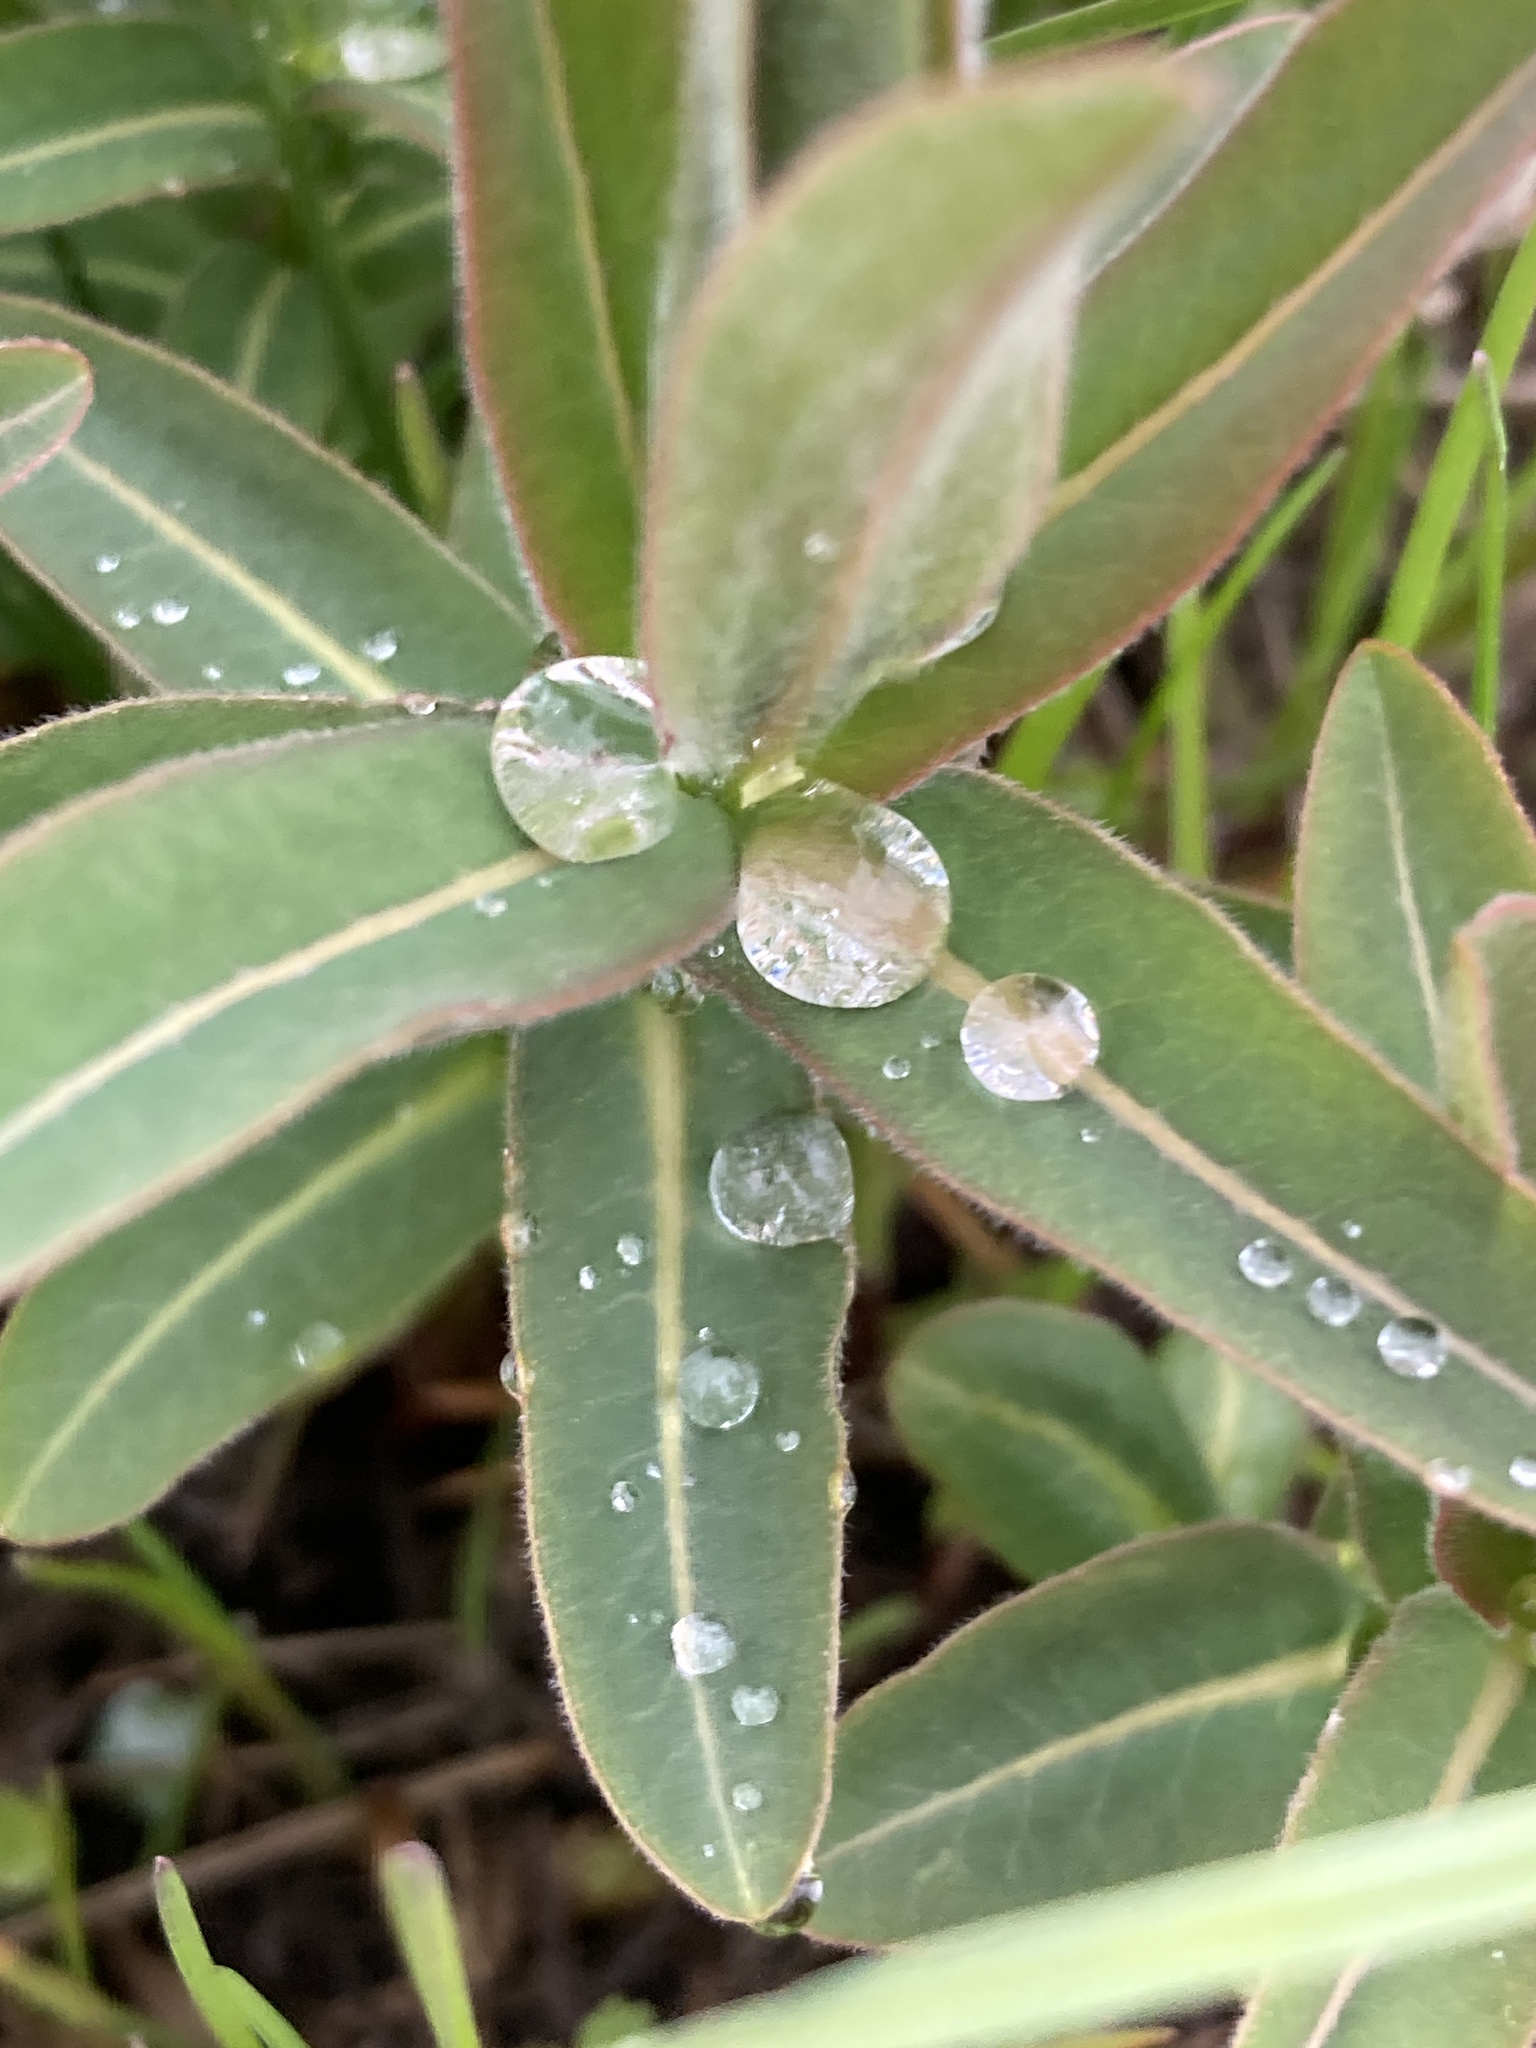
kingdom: Plantae
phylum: Tracheophyta
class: Magnoliopsida
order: Malpighiales
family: Euphorbiaceae
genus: Euphorbia
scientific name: Euphorbia semivillosa
